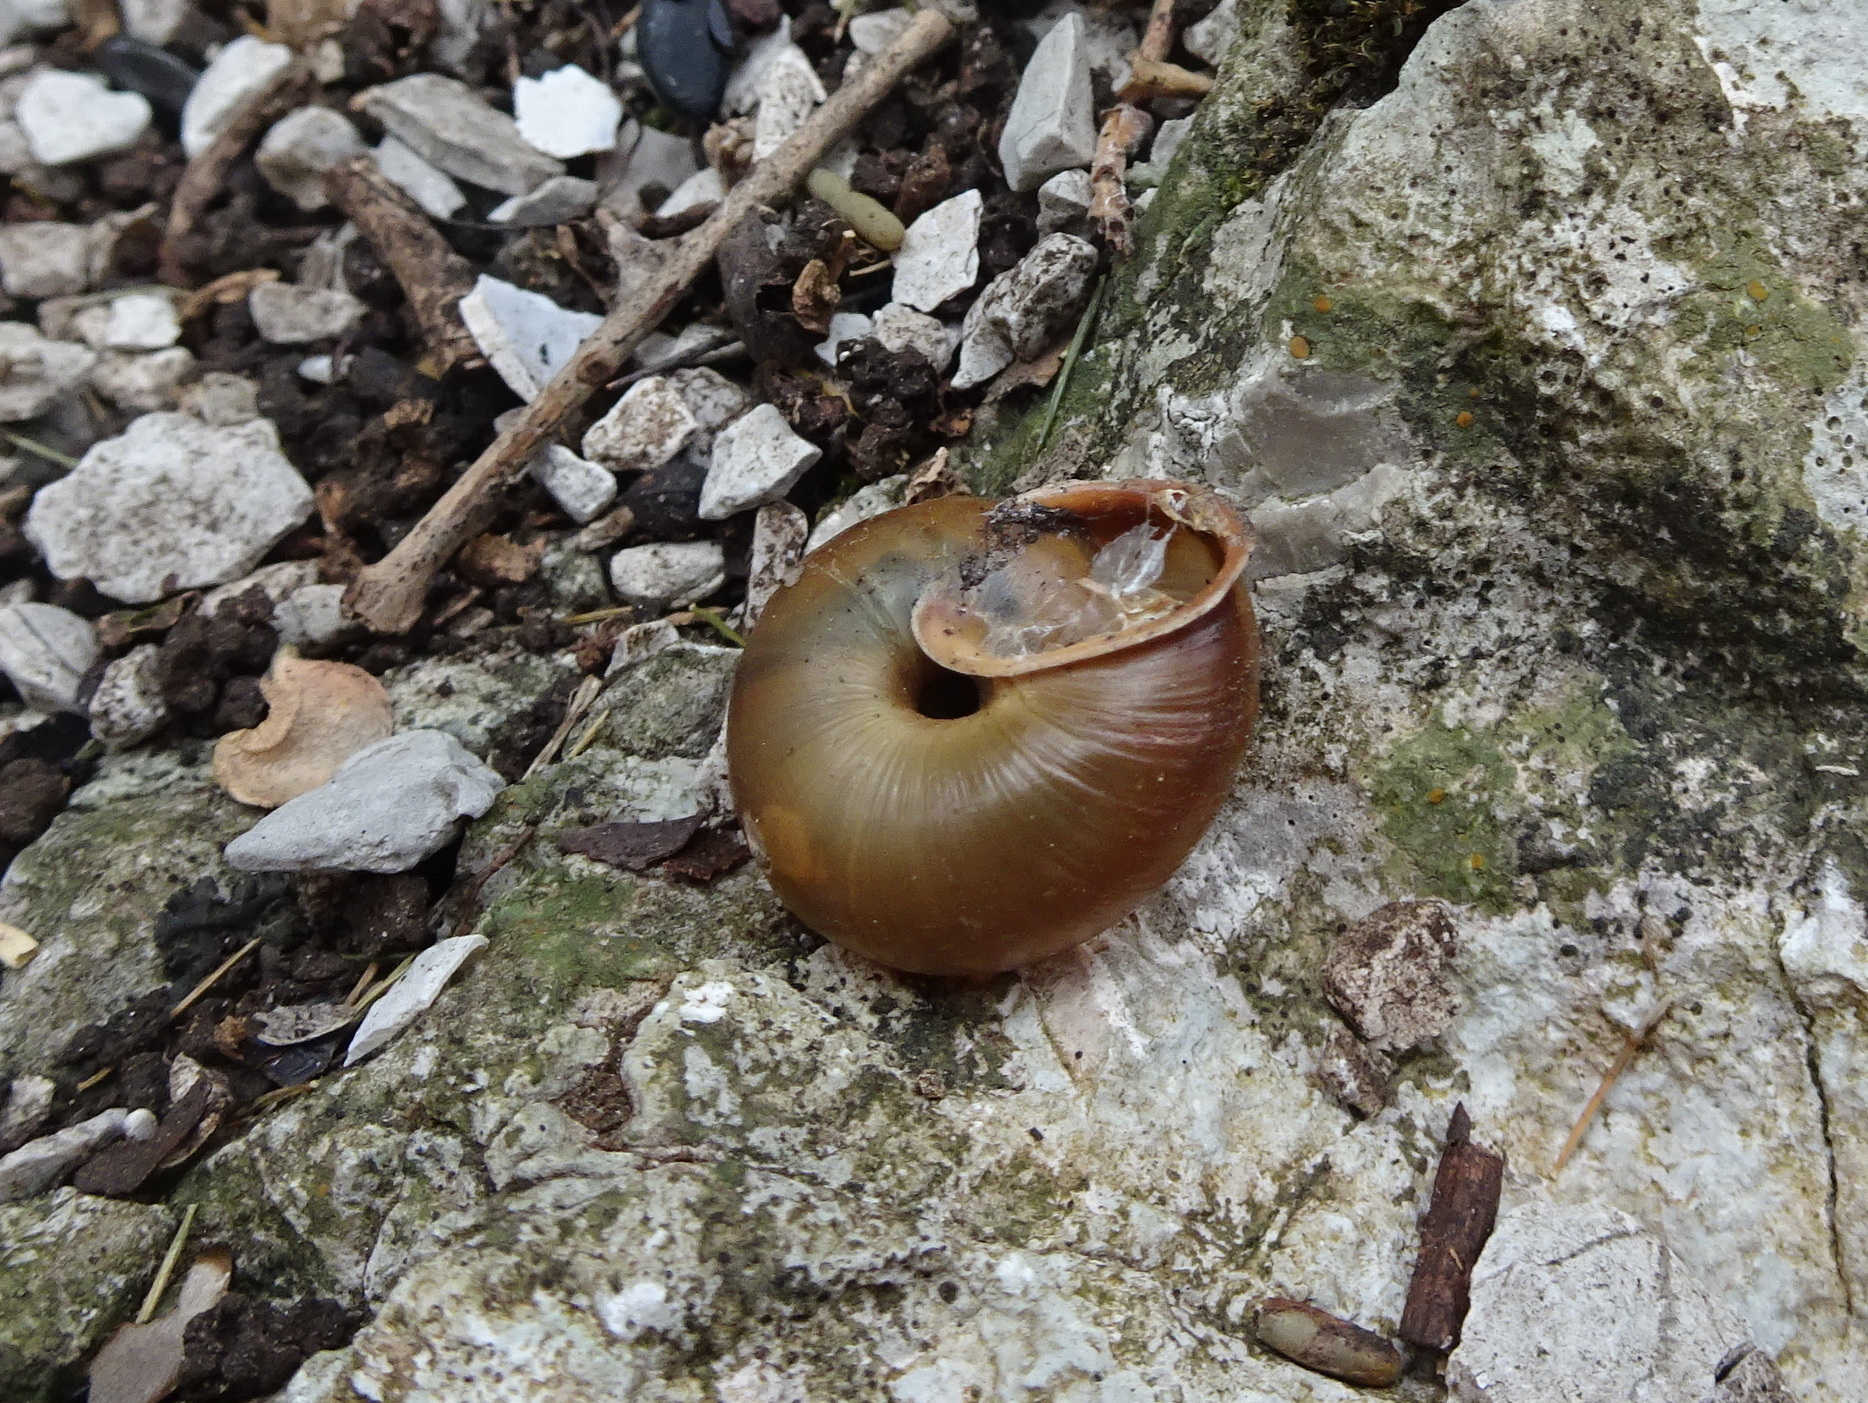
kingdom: Animalia
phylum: Mollusca
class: Gastropoda
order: Stylommatophora
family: Helicidae
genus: Corneola
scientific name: Corneola squamatina
